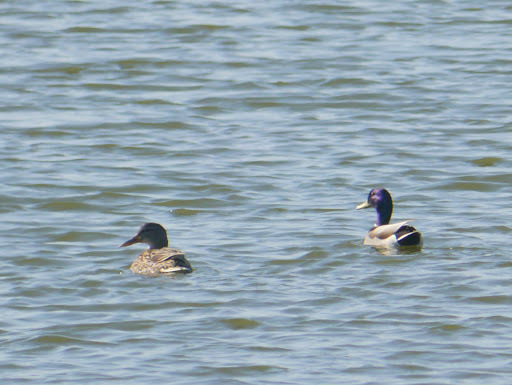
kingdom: Animalia
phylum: Chordata
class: Aves
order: Anseriformes
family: Anatidae
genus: Anas
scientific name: Anas platyrhynchos
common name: Mallard
